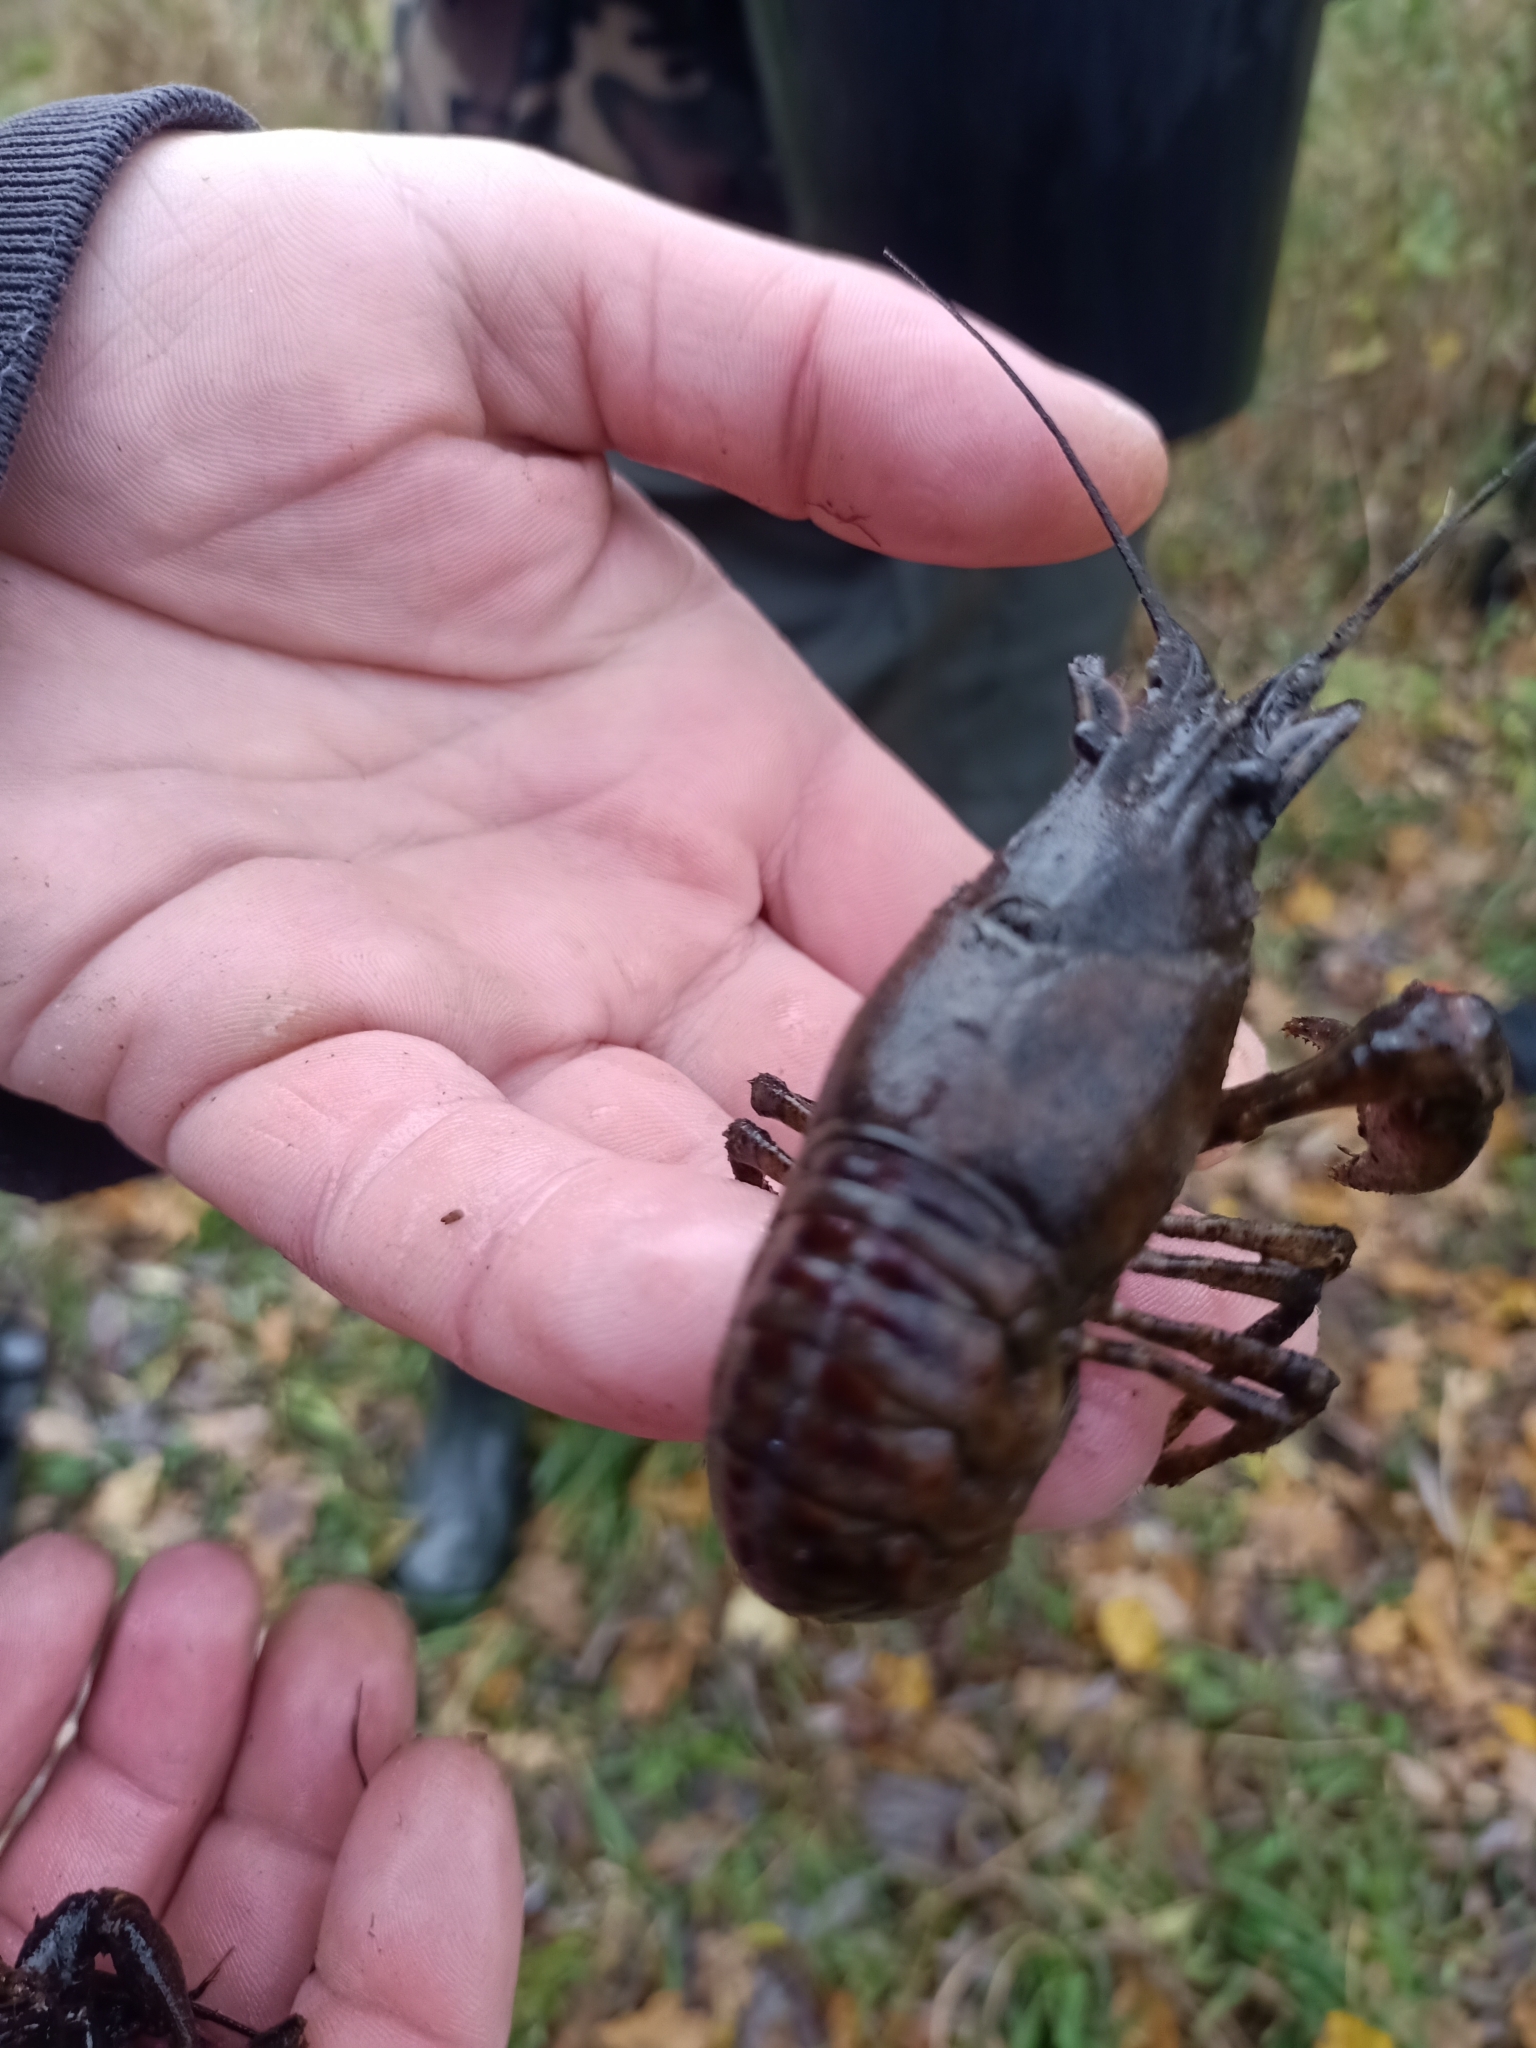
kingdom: Animalia
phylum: Arthropoda
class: Malacostraca
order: Decapoda
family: Cambaridae
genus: Faxonius
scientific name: Faxonius limosus
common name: American crayfish
